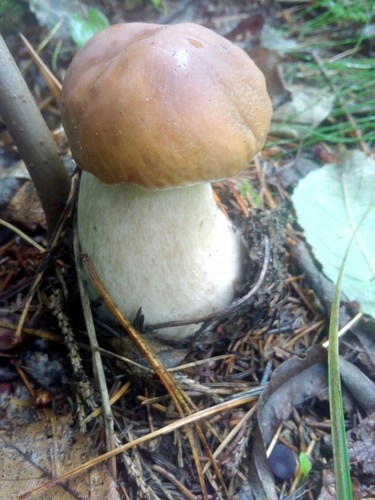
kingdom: Fungi
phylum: Basidiomycota
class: Agaricomycetes
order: Boletales
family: Boletaceae
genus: Boletus
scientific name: Boletus edulis
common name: Cep
